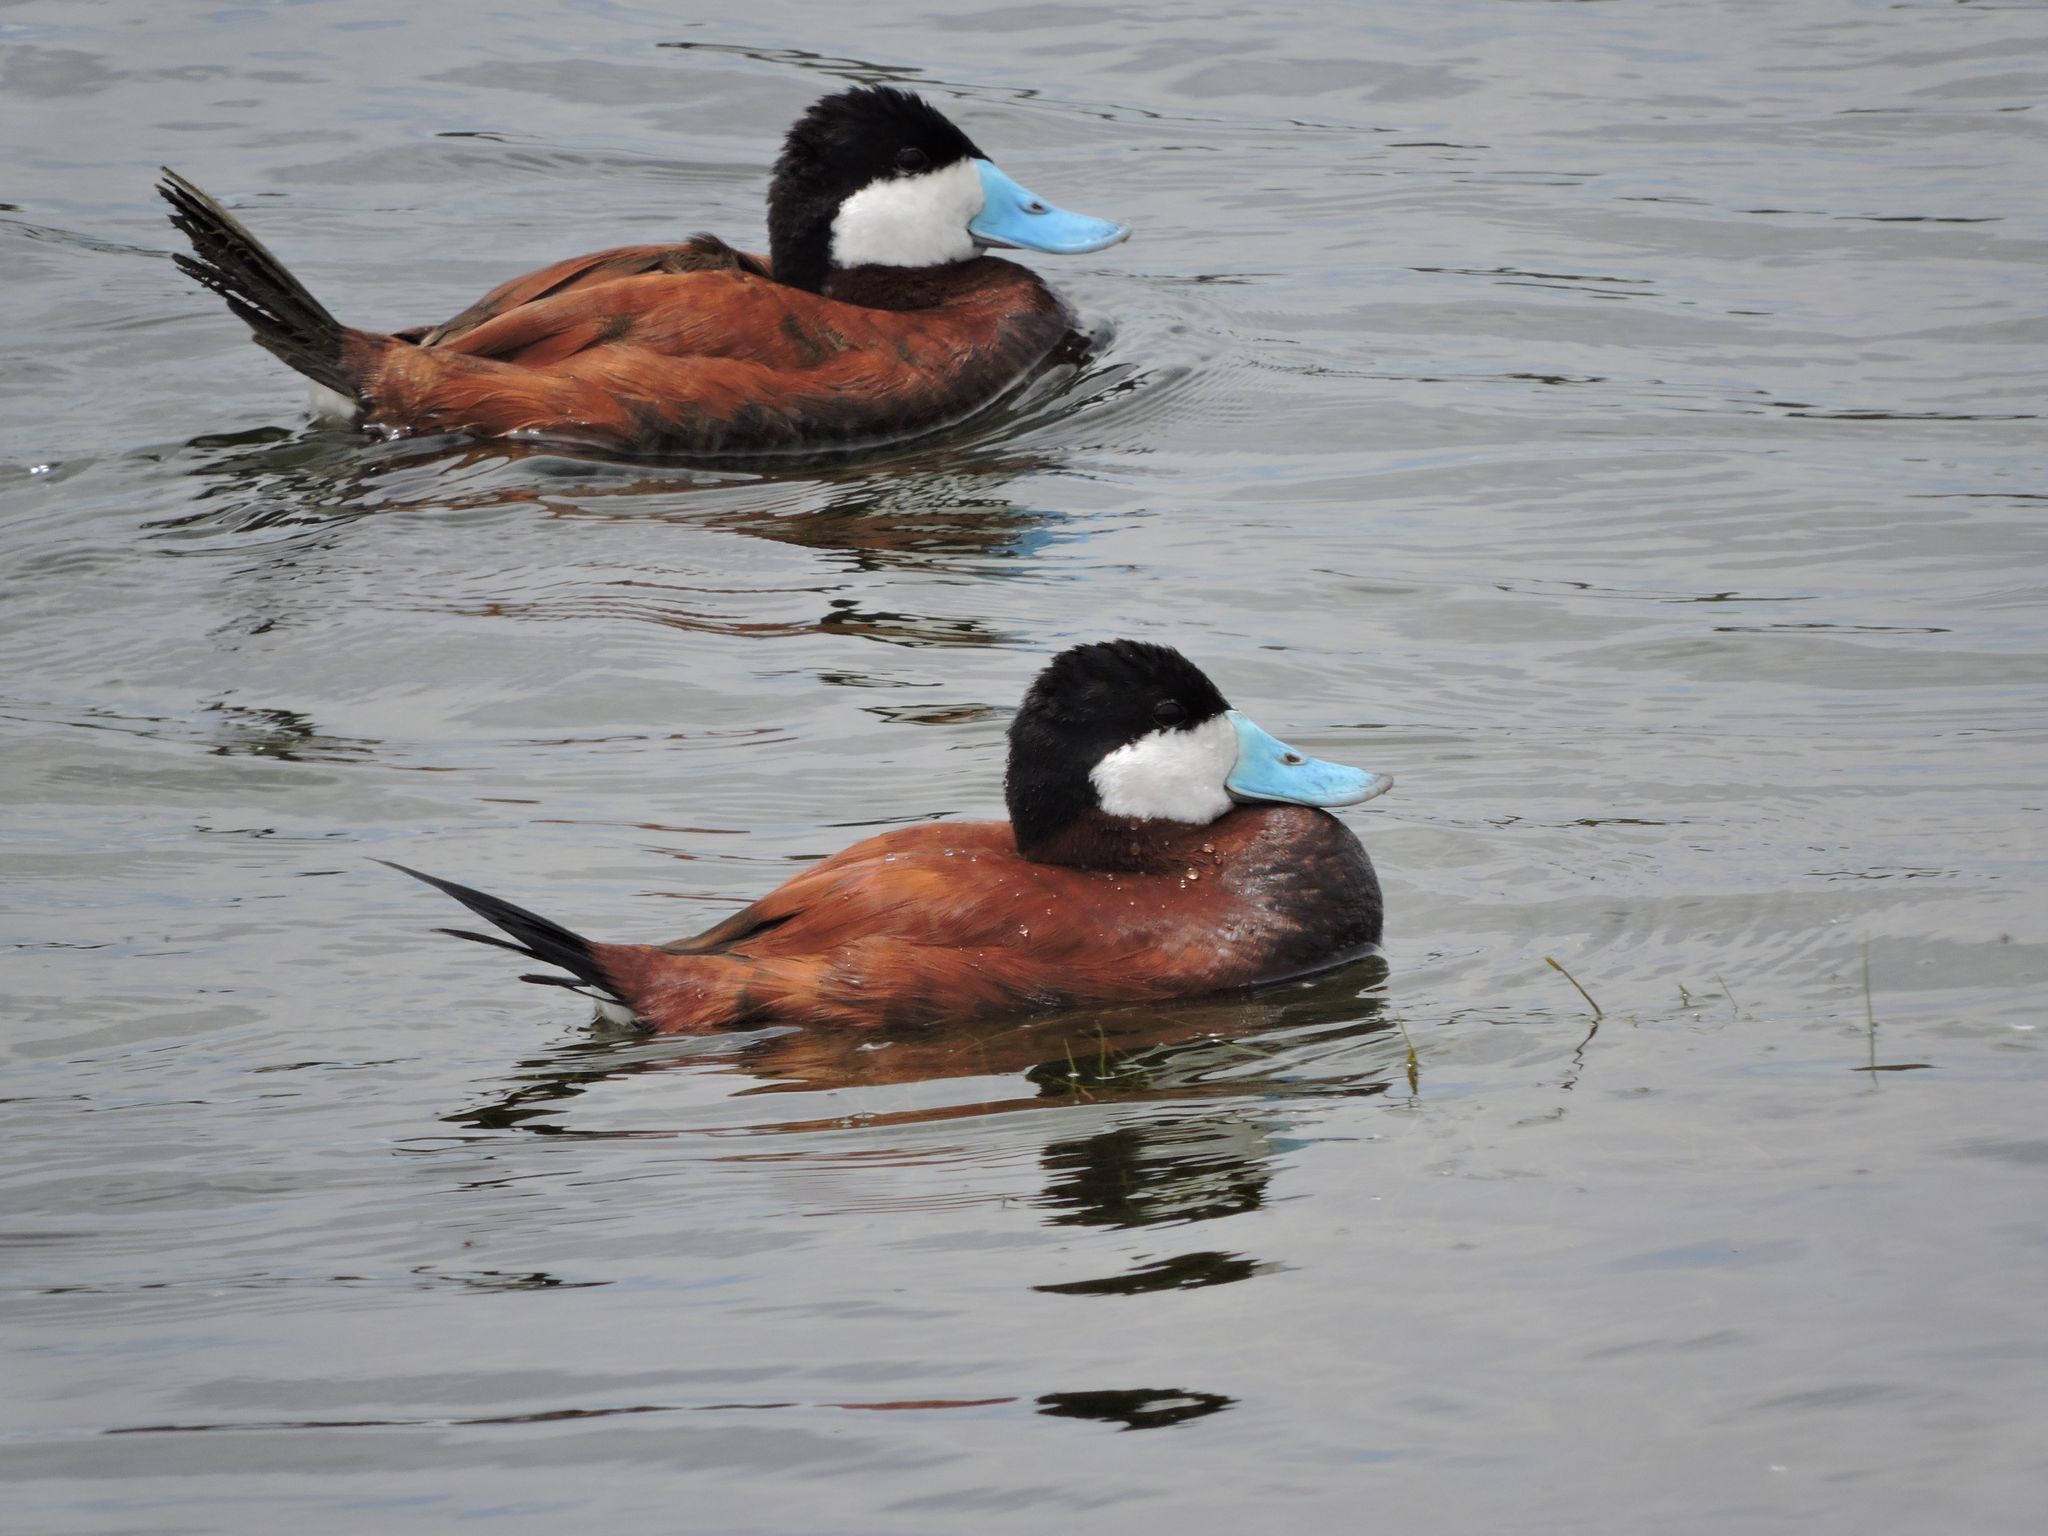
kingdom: Animalia
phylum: Chordata
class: Aves
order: Anseriformes
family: Anatidae
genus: Oxyura
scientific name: Oxyura jamaicensis
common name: Ruddy duck
